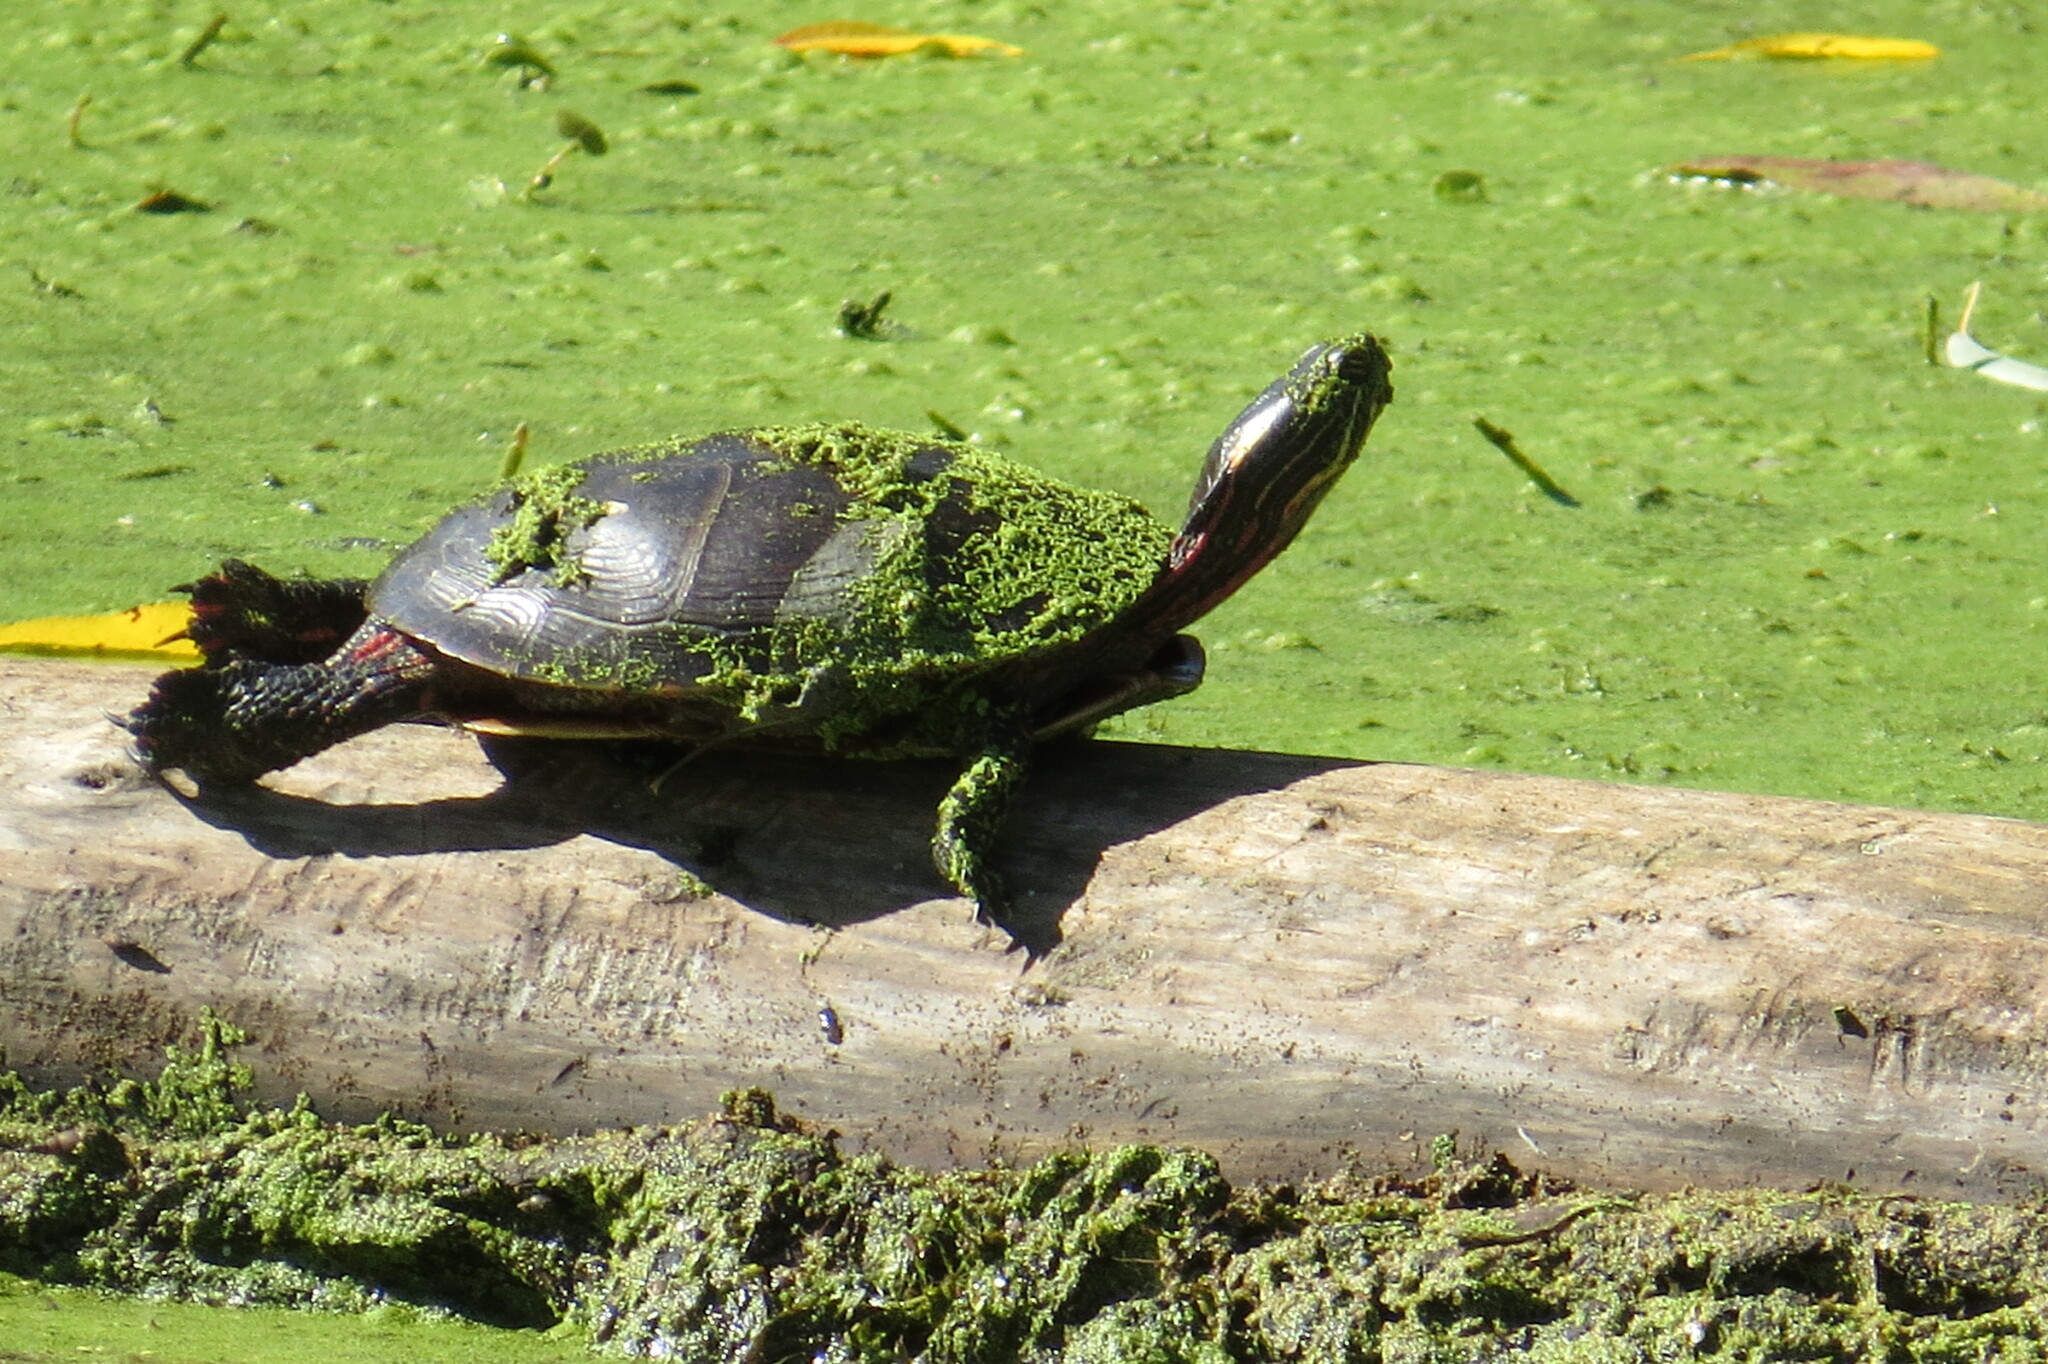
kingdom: Animalia
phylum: Chordata
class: Testudines
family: Emydidae
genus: Chrysemys
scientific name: Chrysemys picta
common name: Painted turtle
